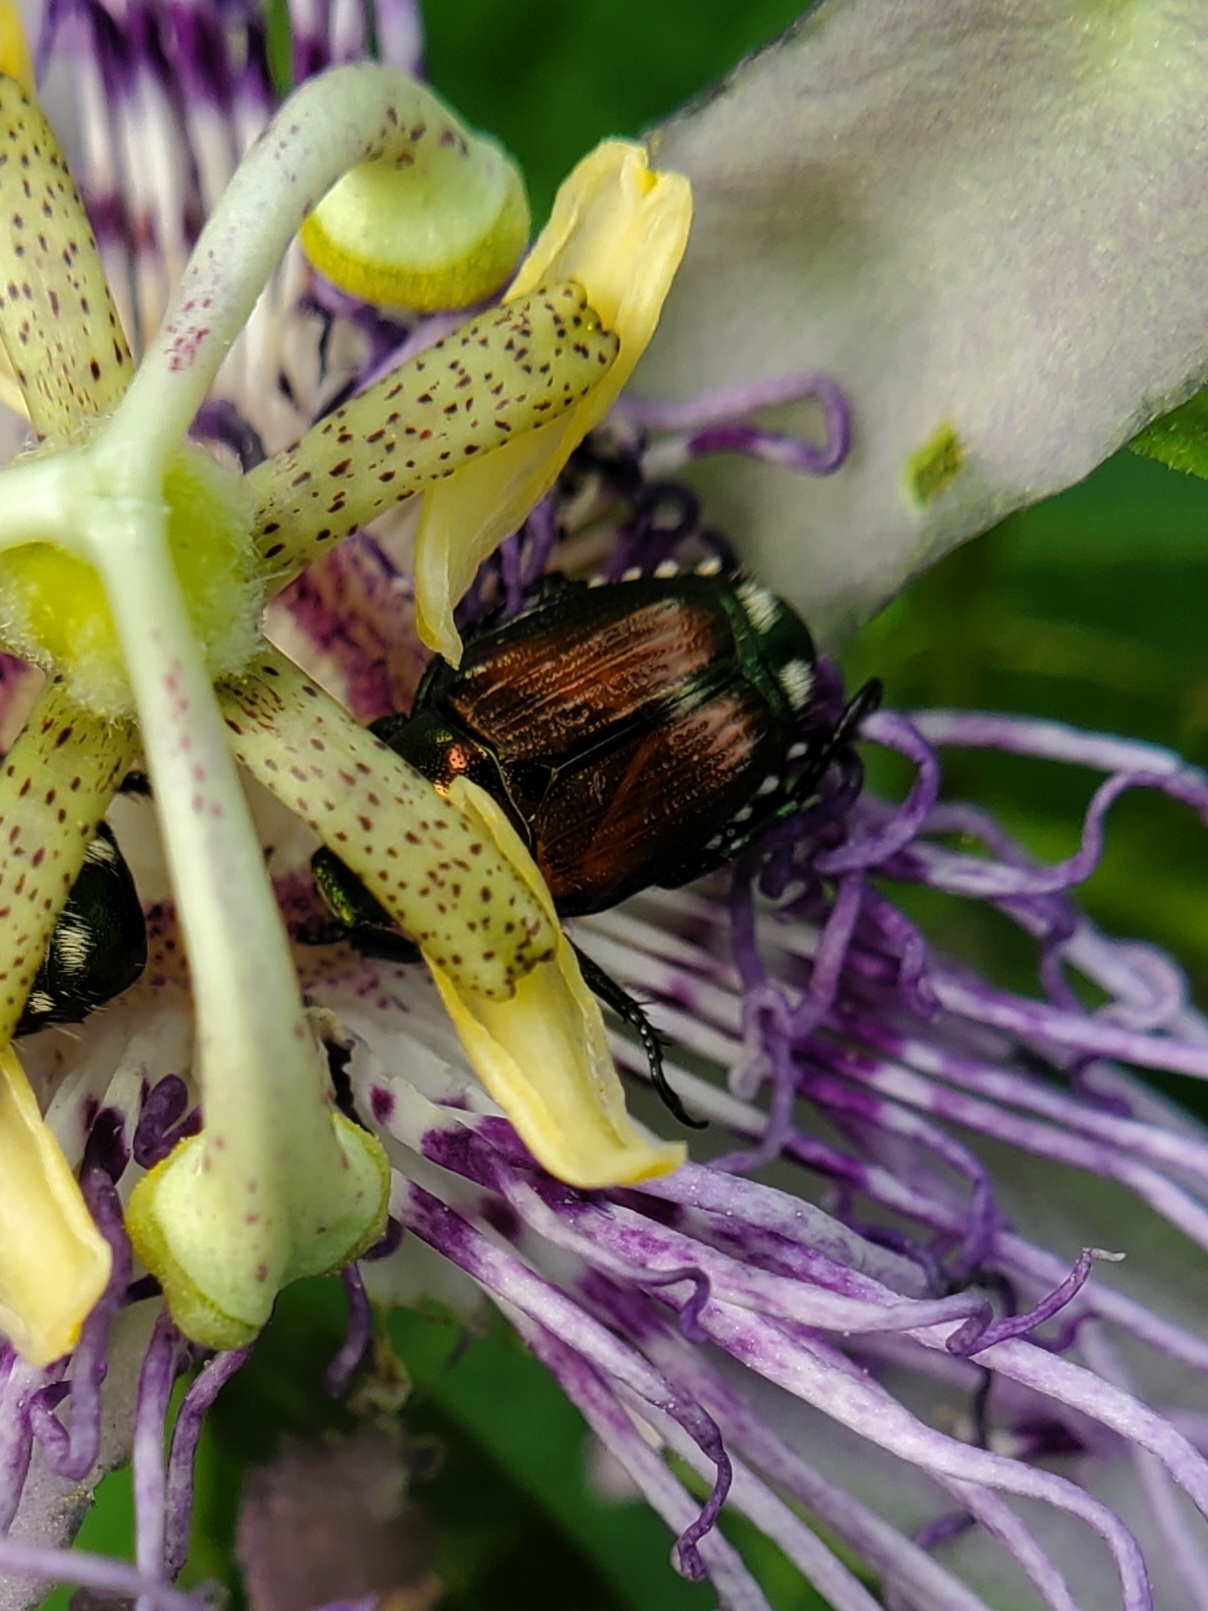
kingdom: Animalia
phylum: Arthropoda
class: Insecta
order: Coleoptera
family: Scarabaeidae
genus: Popillia
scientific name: Popillia japonica
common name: Japanese beetle
